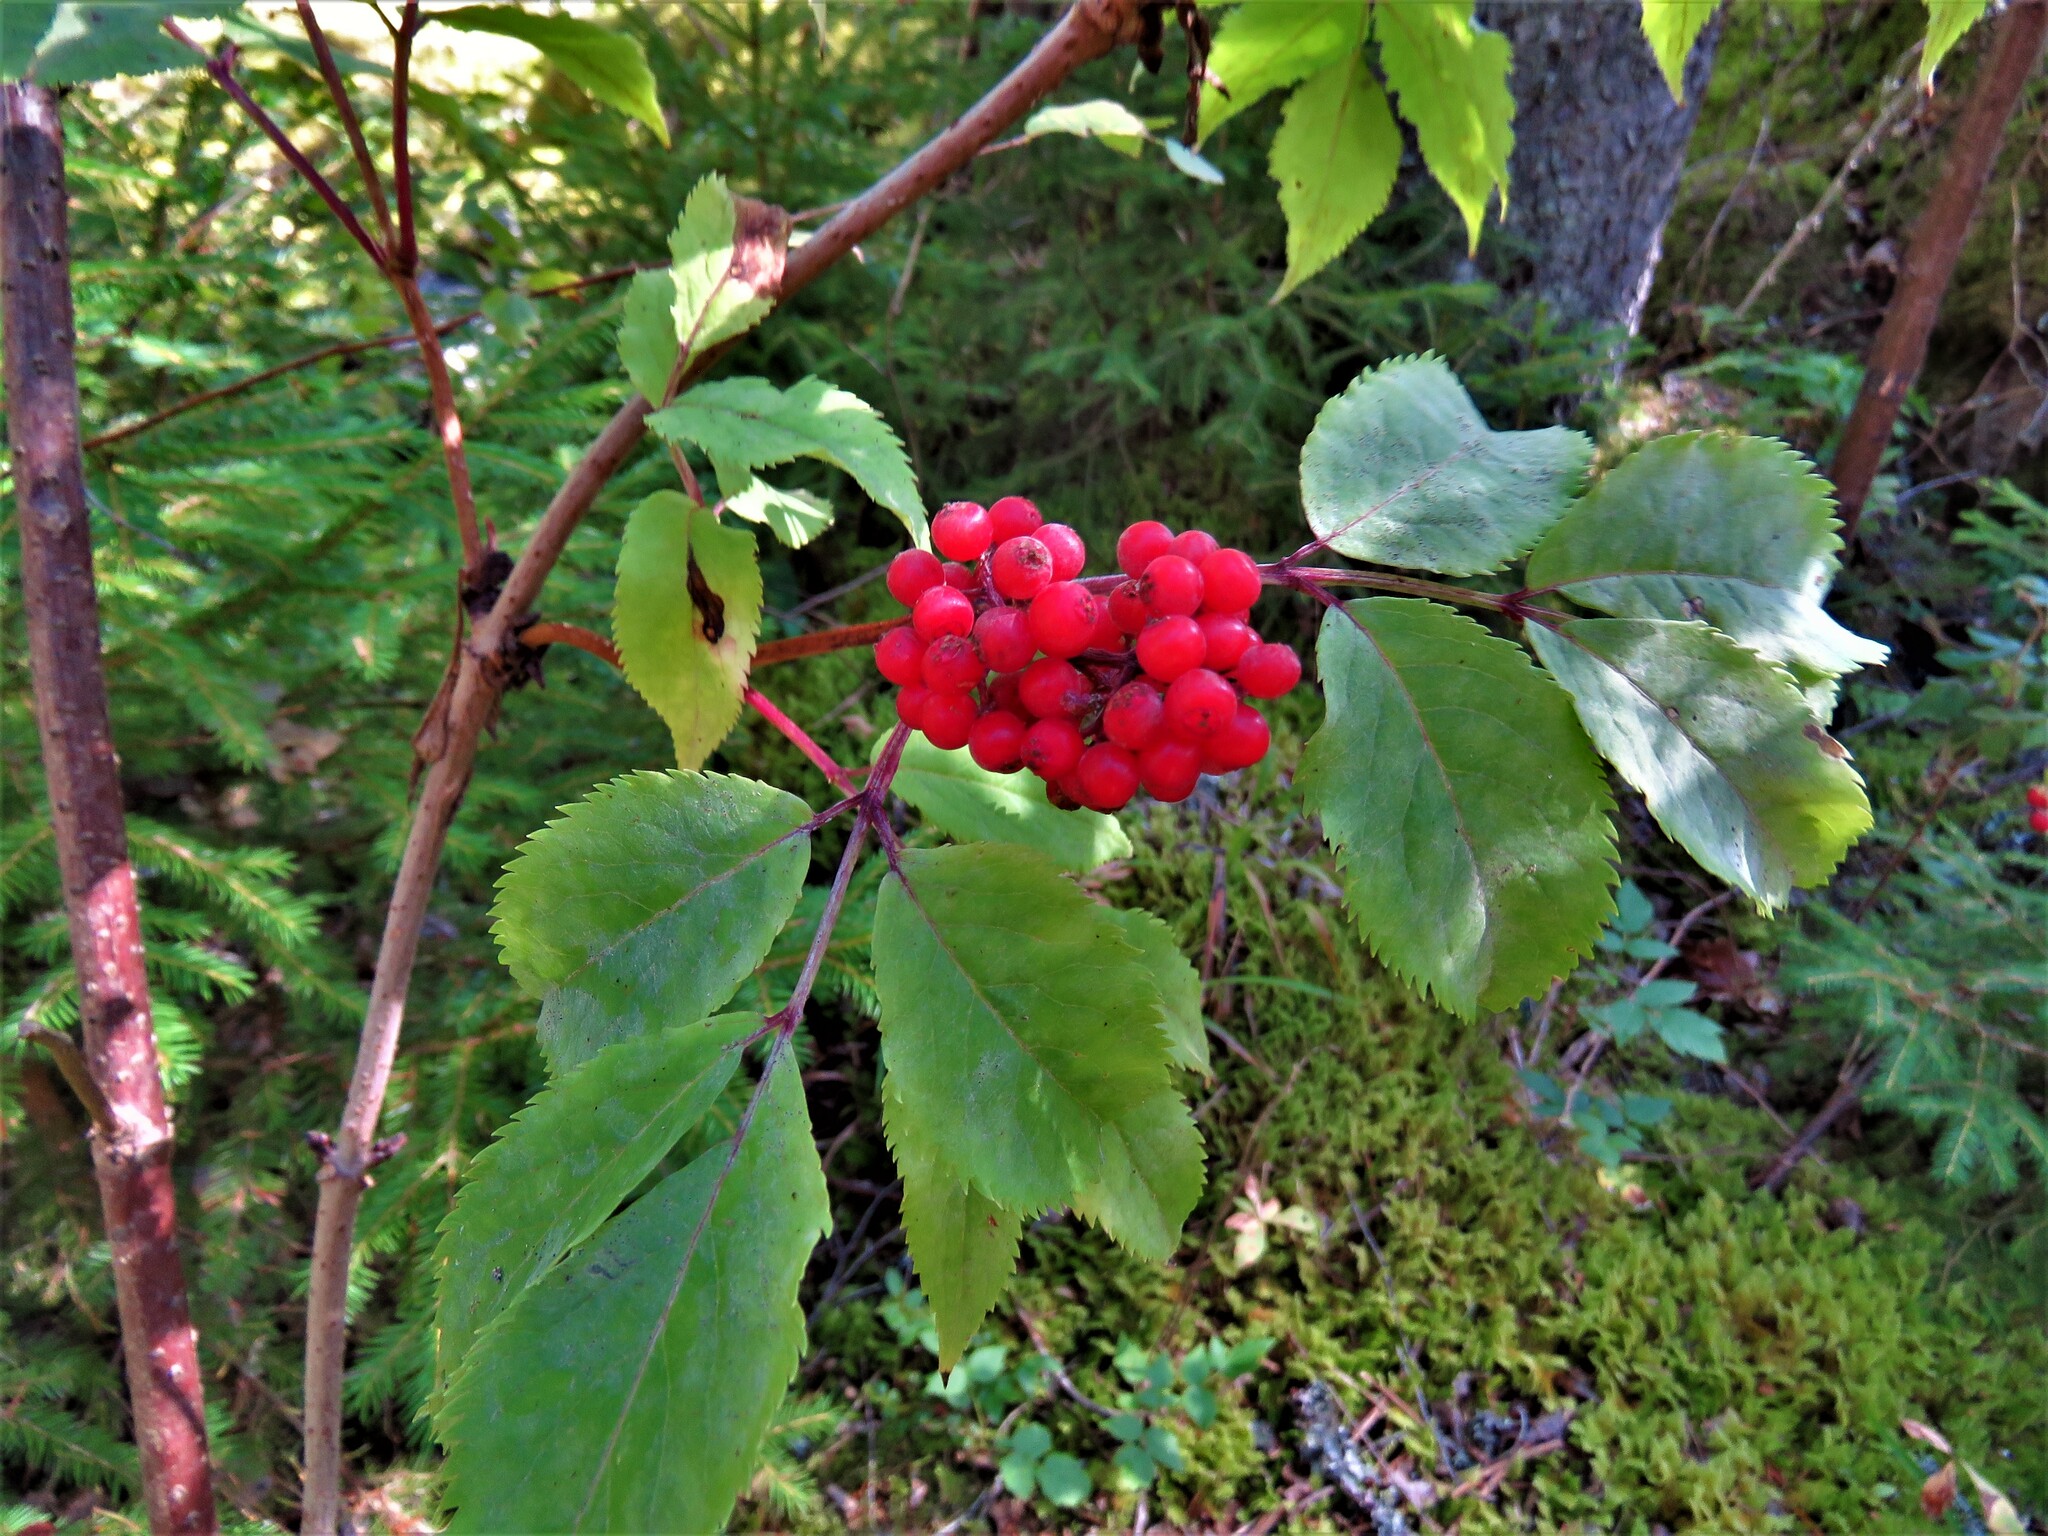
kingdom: Plantae
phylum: Tracheophyta
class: Magnoliopsida
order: Dipsacales
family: Viburnaceae
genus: Sambucus
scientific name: Sambucus racemosa
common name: Red-berried elder
